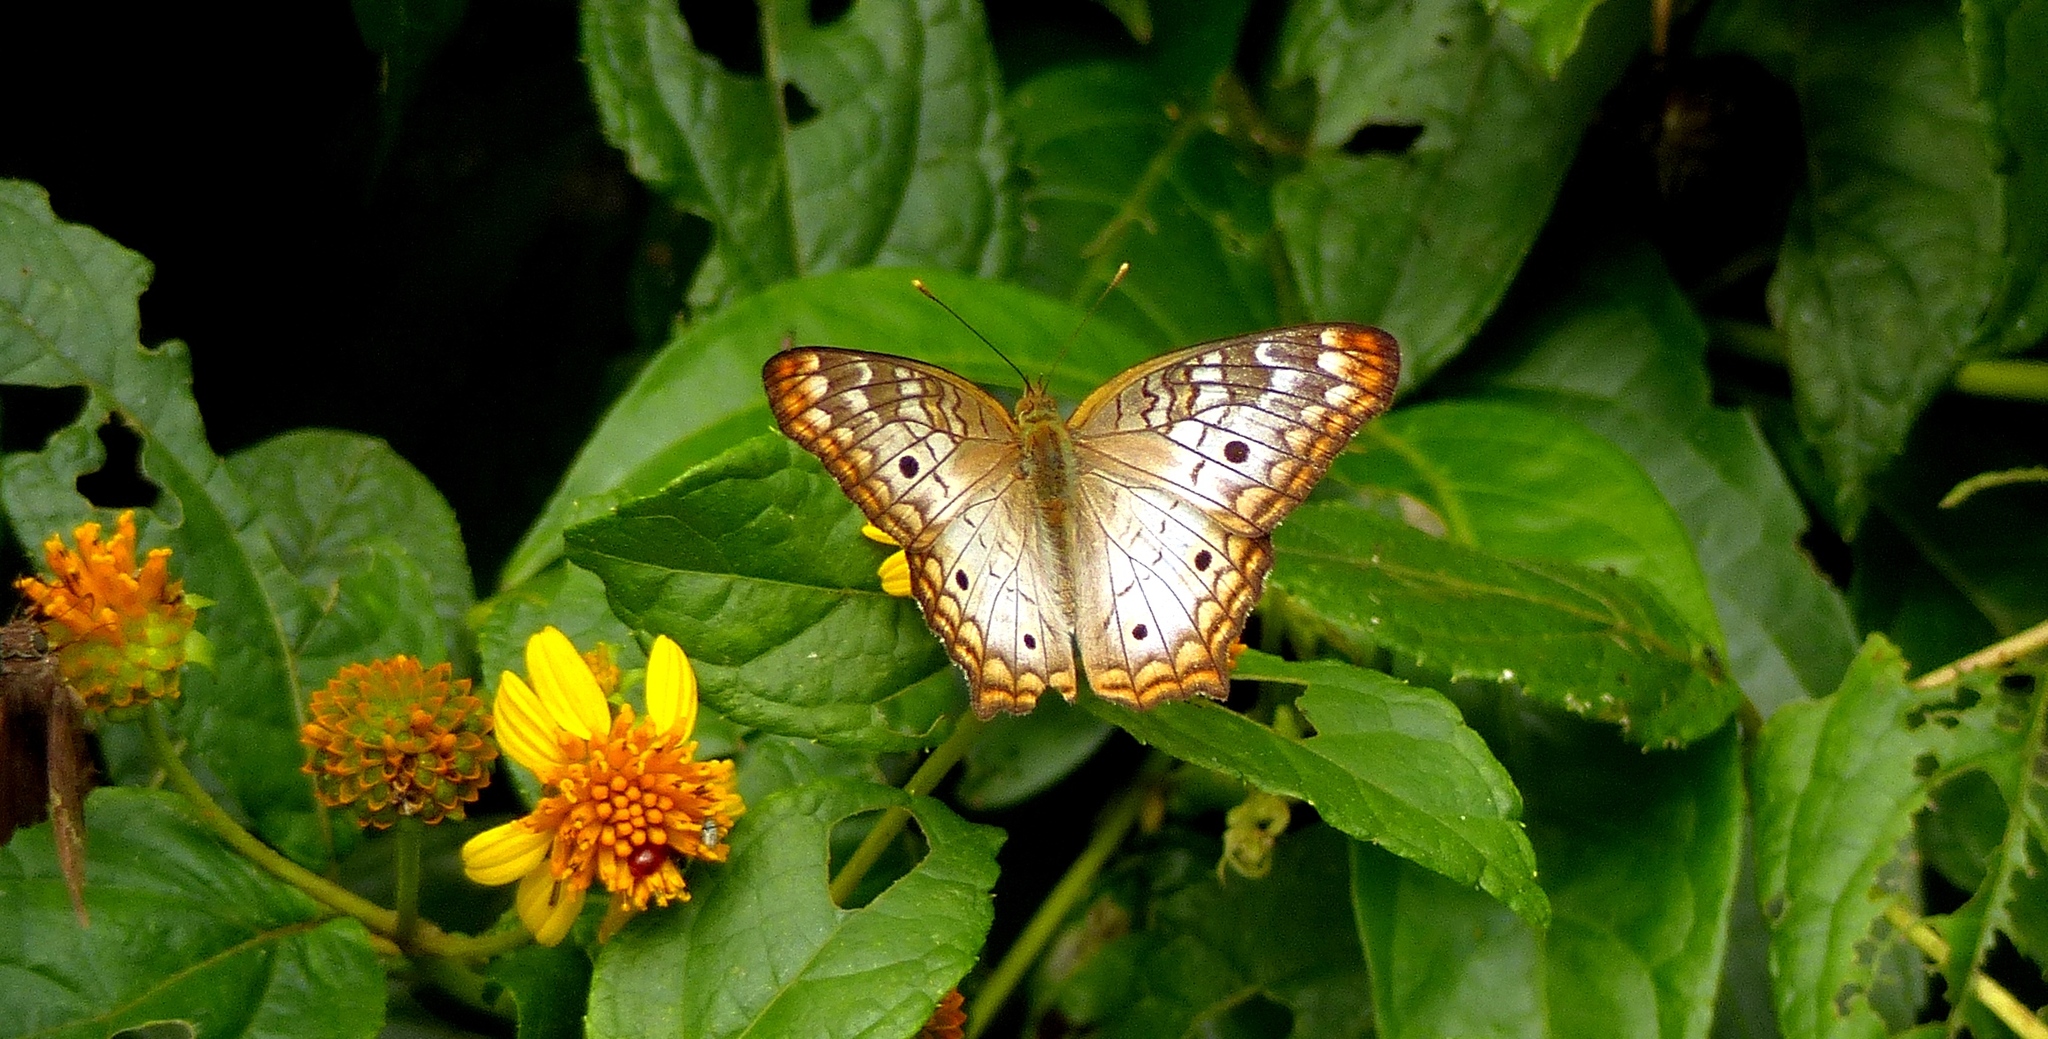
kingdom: Animalia
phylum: Arthropoda
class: Insecta
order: Lepidoptera
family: Nymphalidae
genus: Anartia
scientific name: Anartia jatrophae
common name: White peacock
